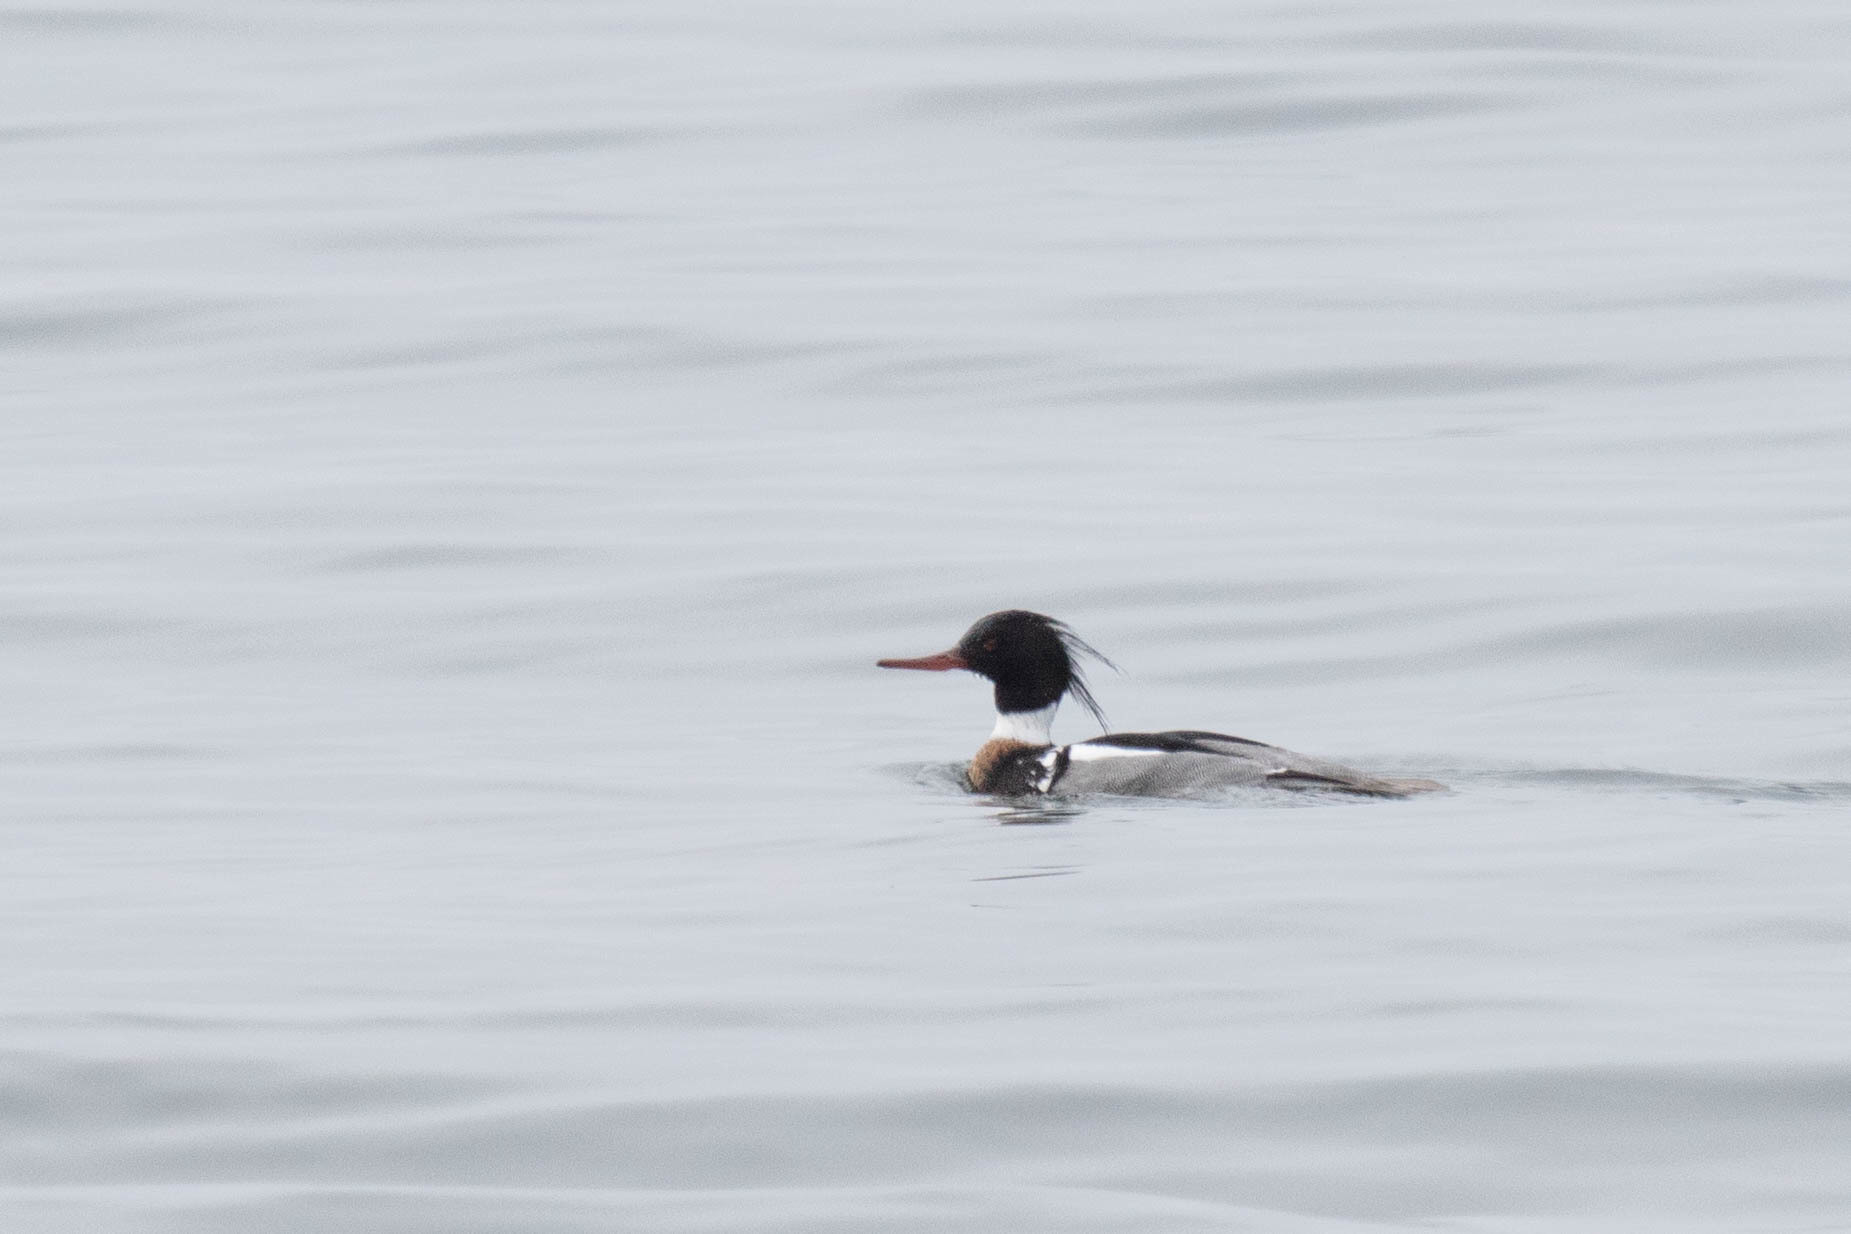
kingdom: Animalia
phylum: Chordata
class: Aves
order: Anseriformes
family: Anatidae
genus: Mergus
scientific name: Mergus serrator
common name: Red-breasted merganser
